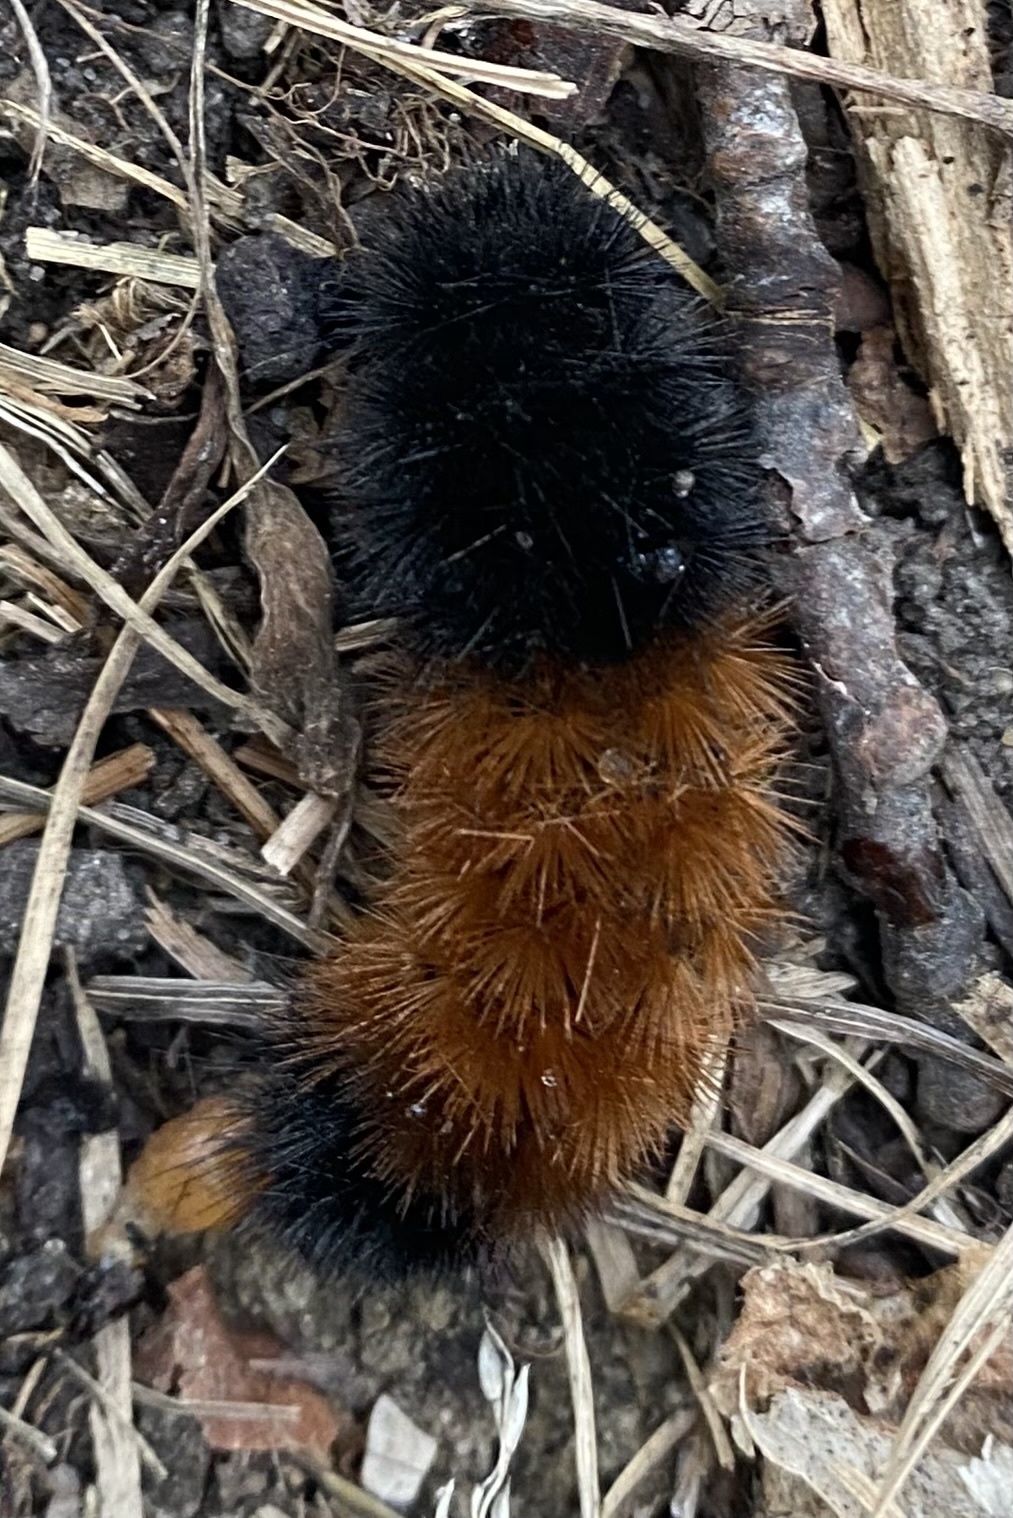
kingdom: Animalia
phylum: Arthropoda
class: Insecta
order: Lepidoptera
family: Erebidae
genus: Pyrrharctia
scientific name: Pyrrharctia isabella
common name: Isabella tiger moth
